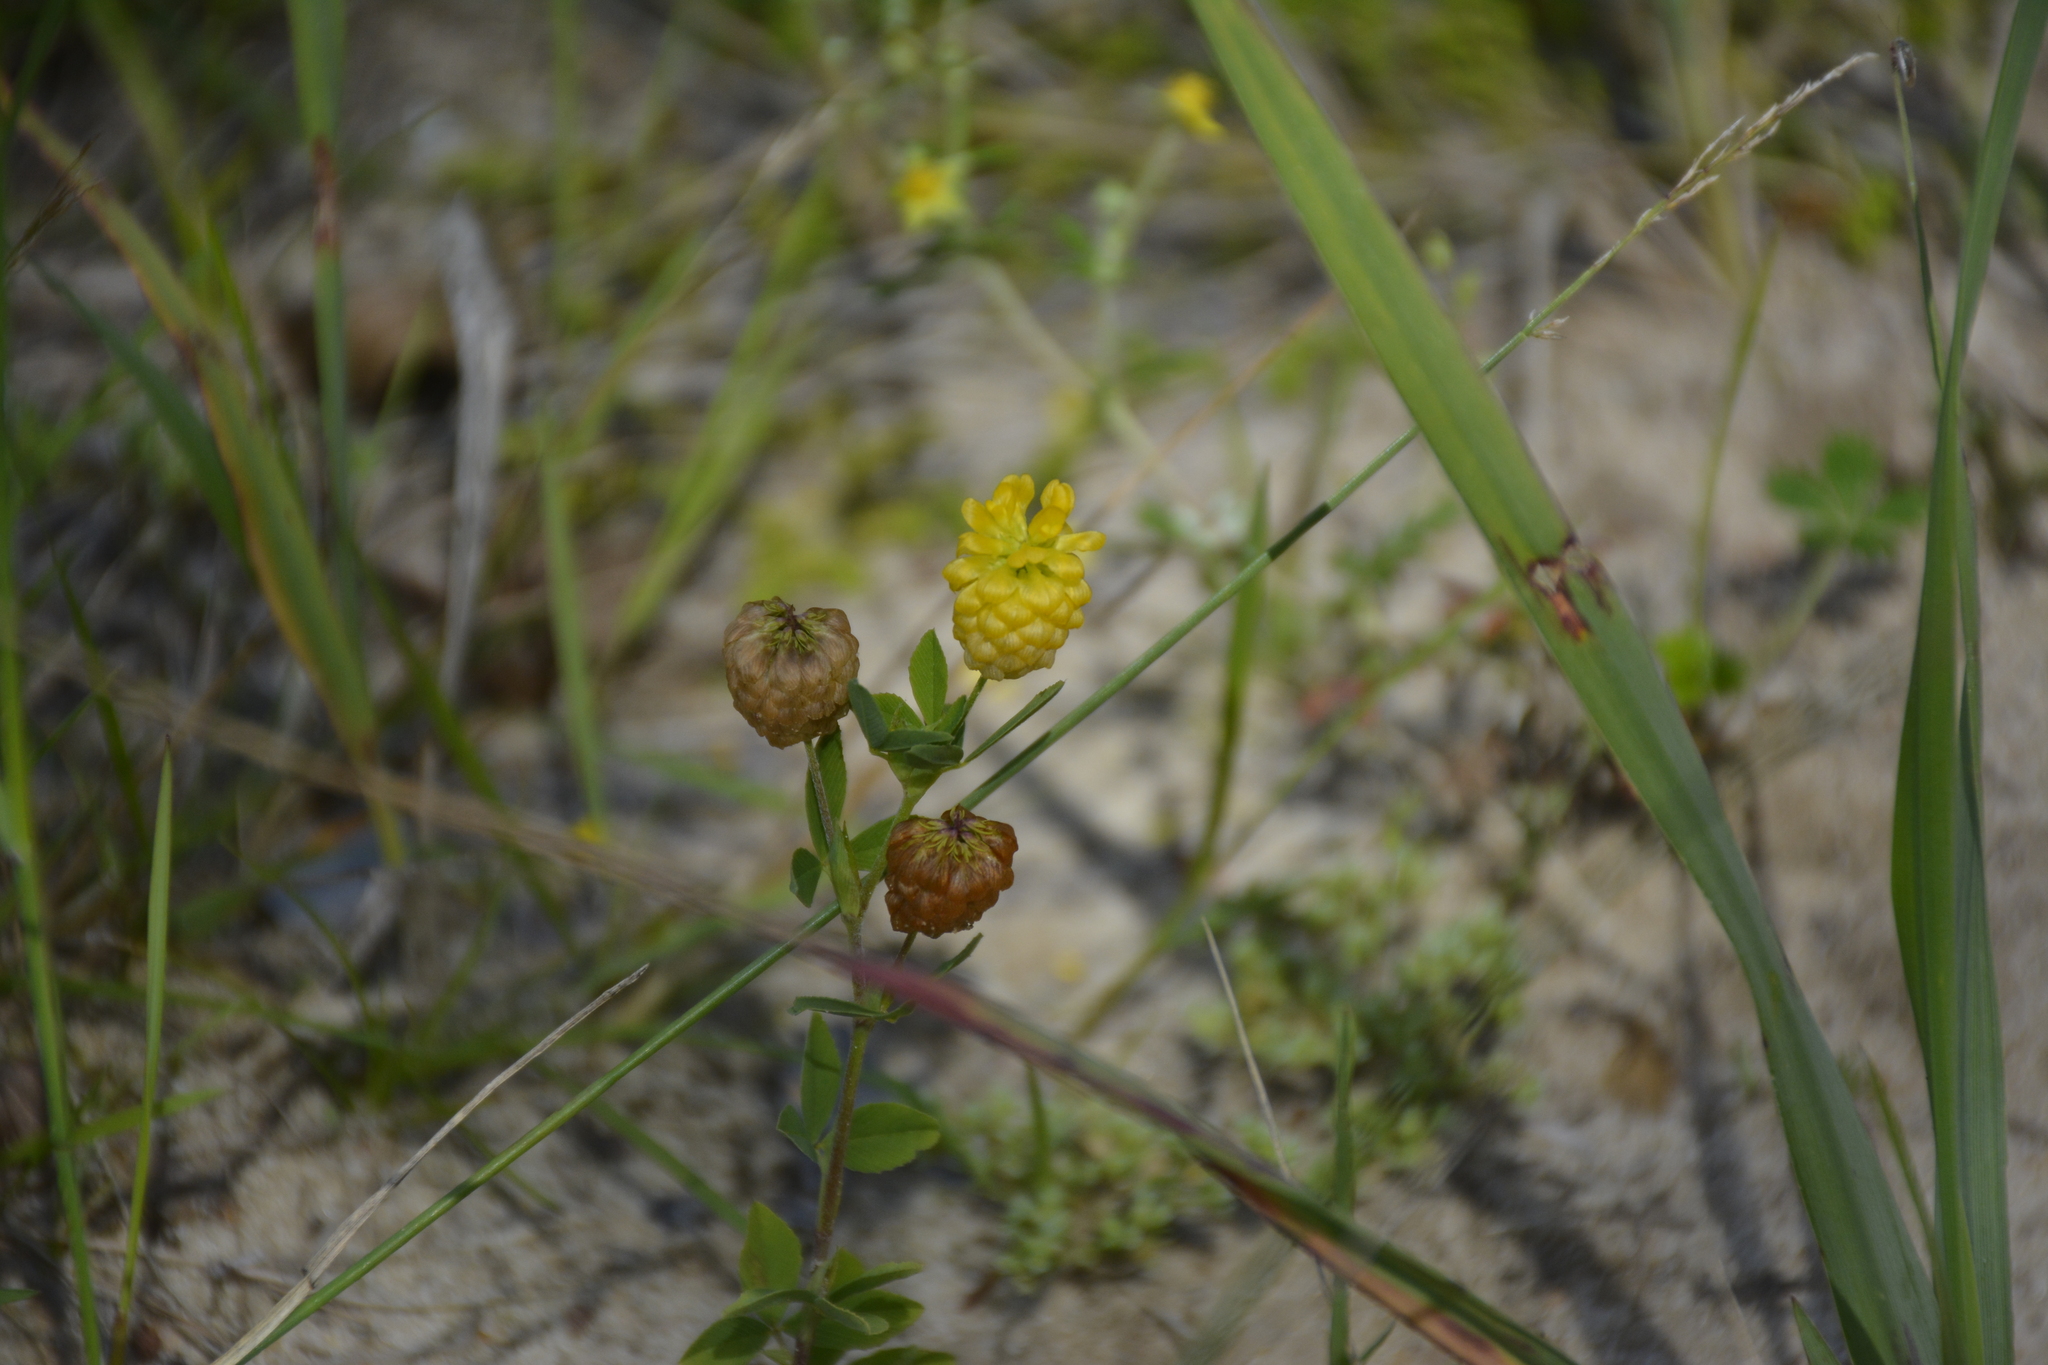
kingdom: Plantae
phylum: Tracheophyta
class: Magnoliopsida
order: Fabales
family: Fabaceae
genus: Trifolium
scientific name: Trifolium aureum
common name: Golden clover
